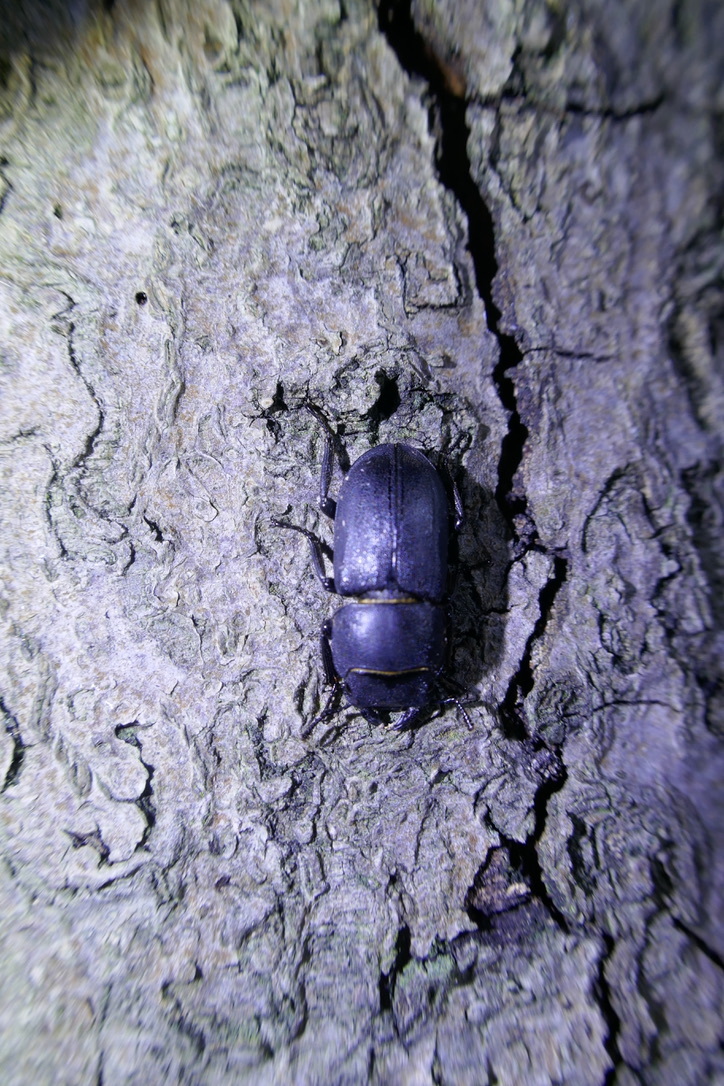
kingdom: Animalia
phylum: Arthropoda
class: Insecta
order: Coleoptera
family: Lucanidae
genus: Dorcus
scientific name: Dorcus parallelipipedus
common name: Lesser stag beetle
